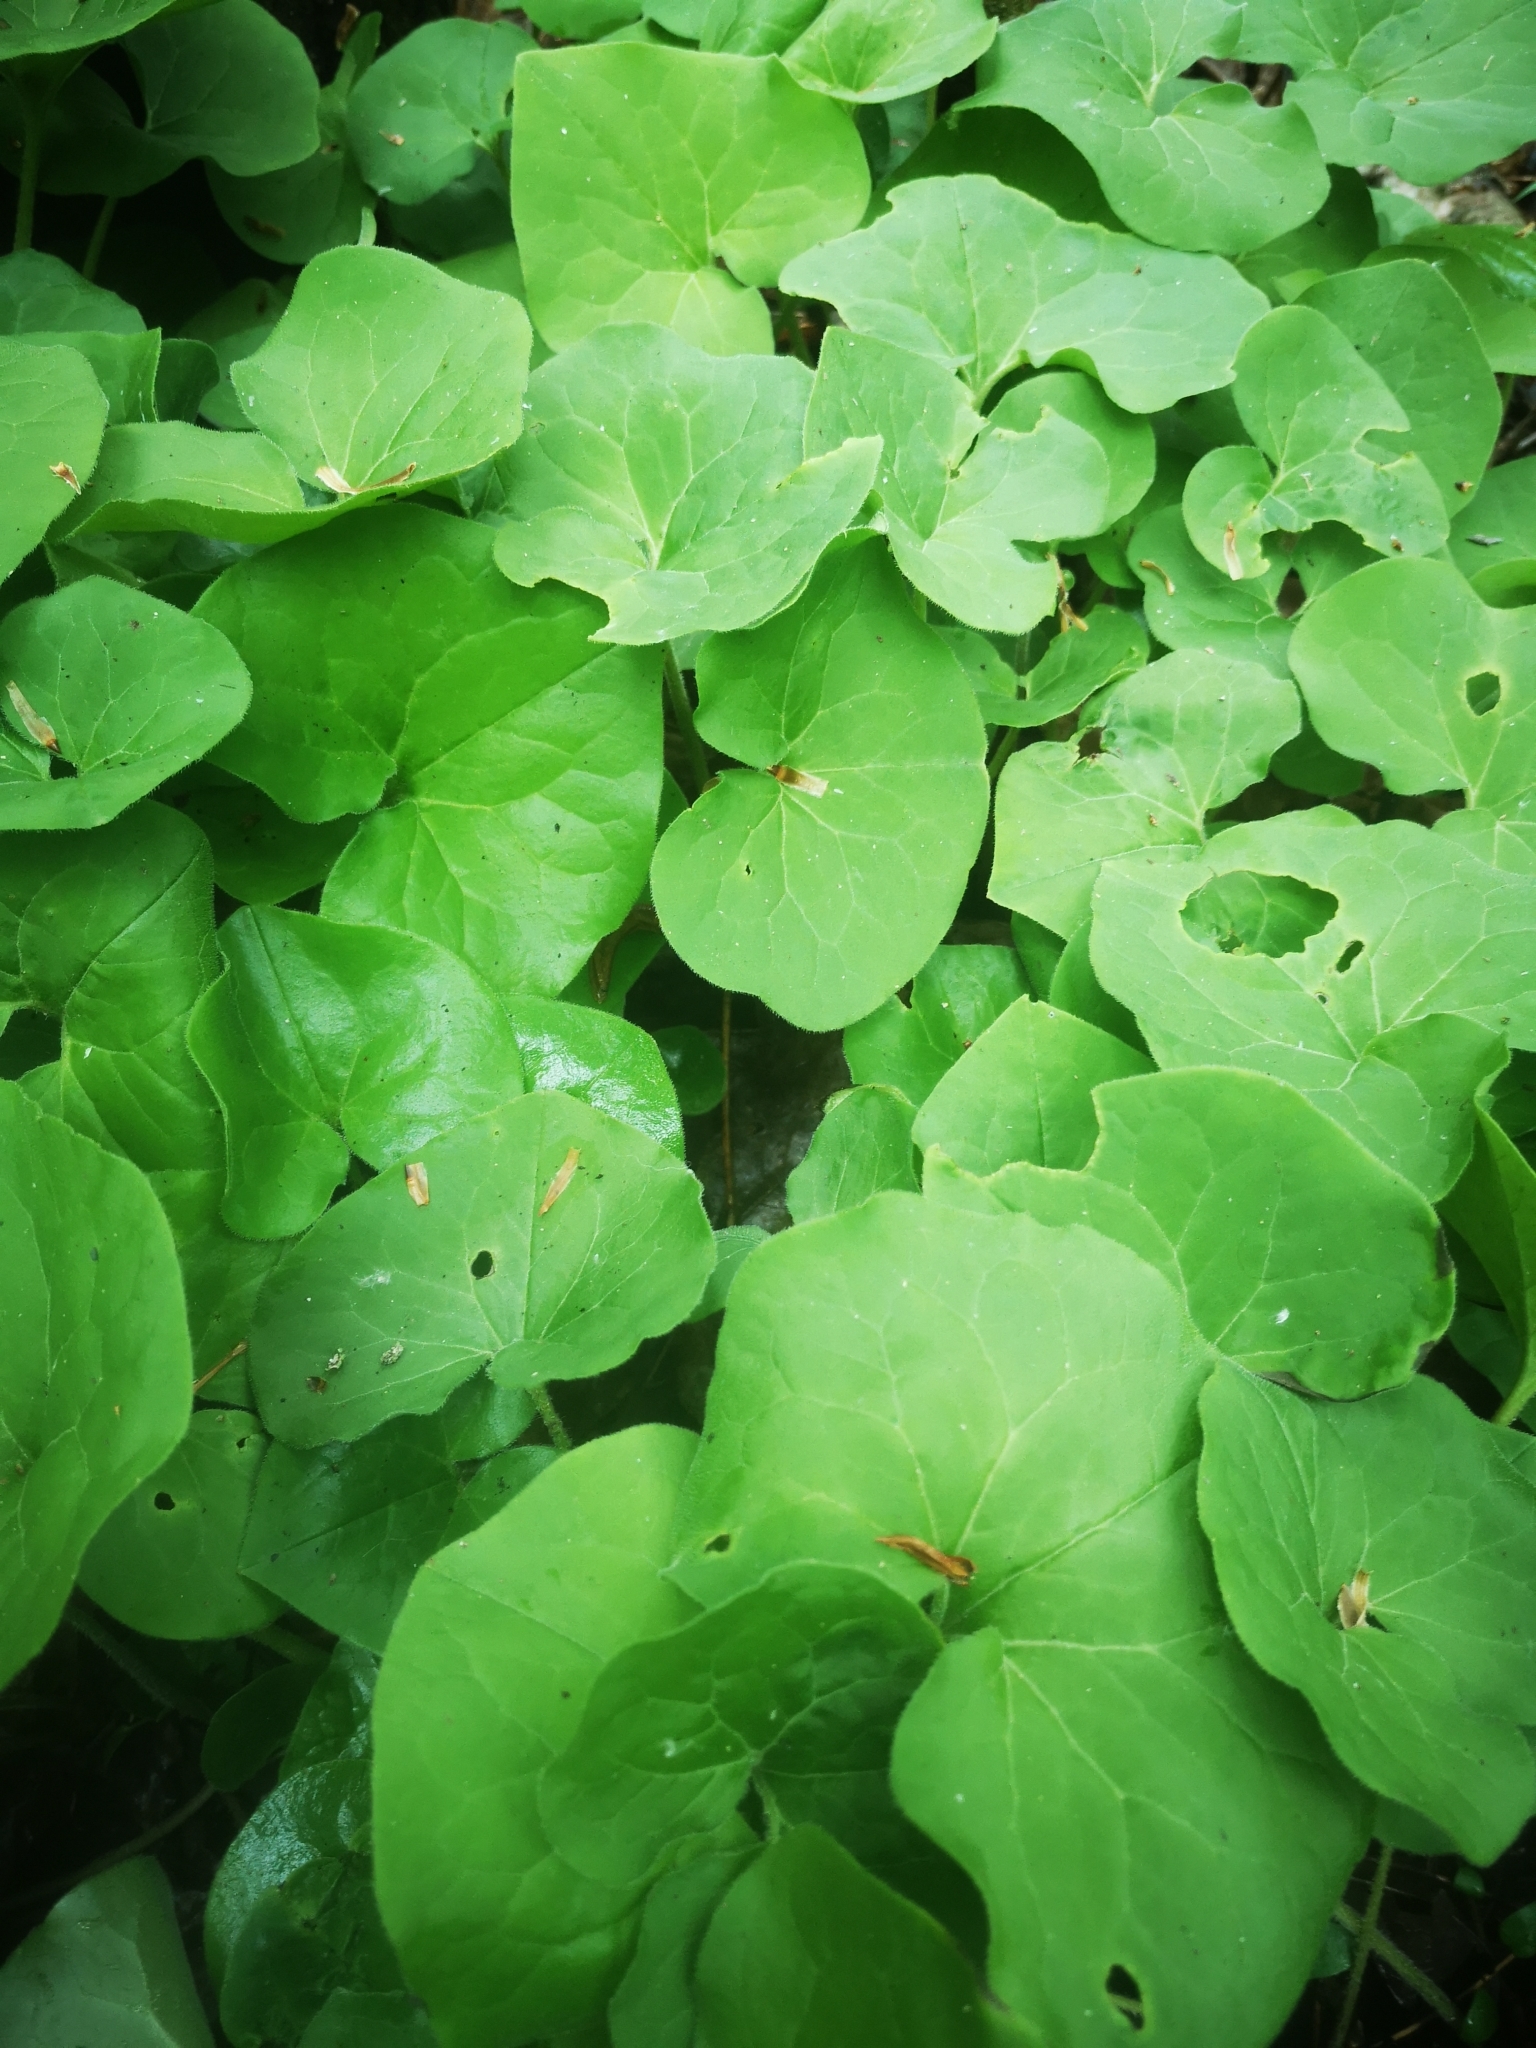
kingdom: Plantae
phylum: Tracheophyta
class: Magnoliopsida
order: Piperales
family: Aristolochiaceae
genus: Asarum
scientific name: Asarum canadense
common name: Wild ginger
